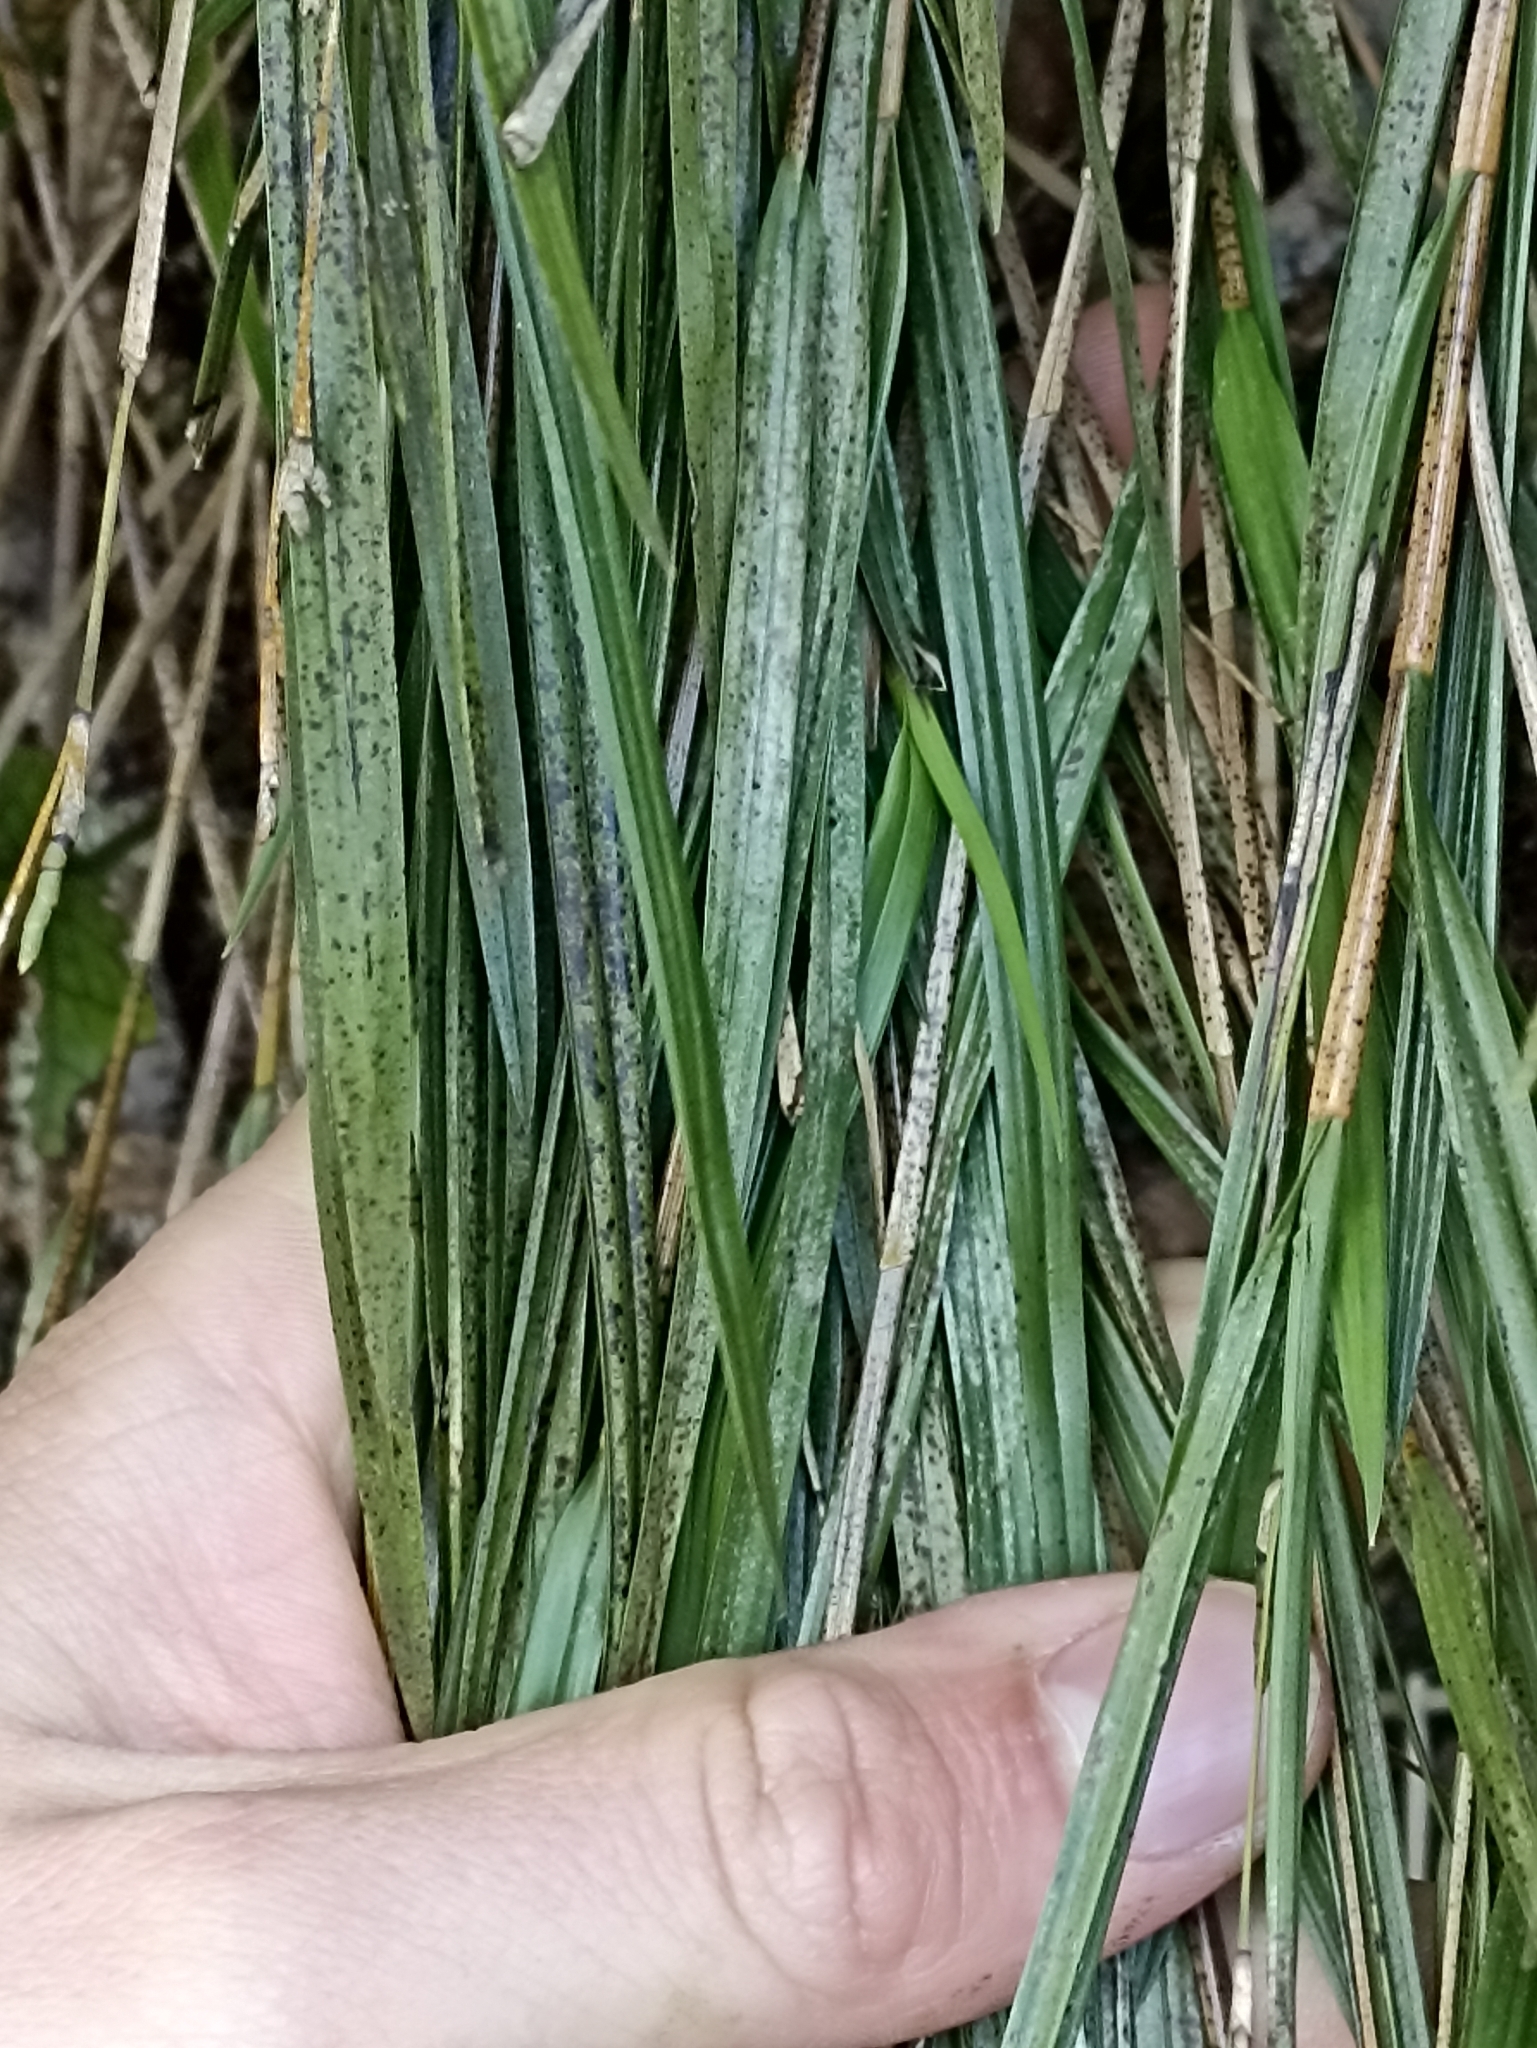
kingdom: Plantae
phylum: Tracheophyta
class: Liliopsida
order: Asparagales
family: Orchidaceae
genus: Earina
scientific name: Earina mucronata
